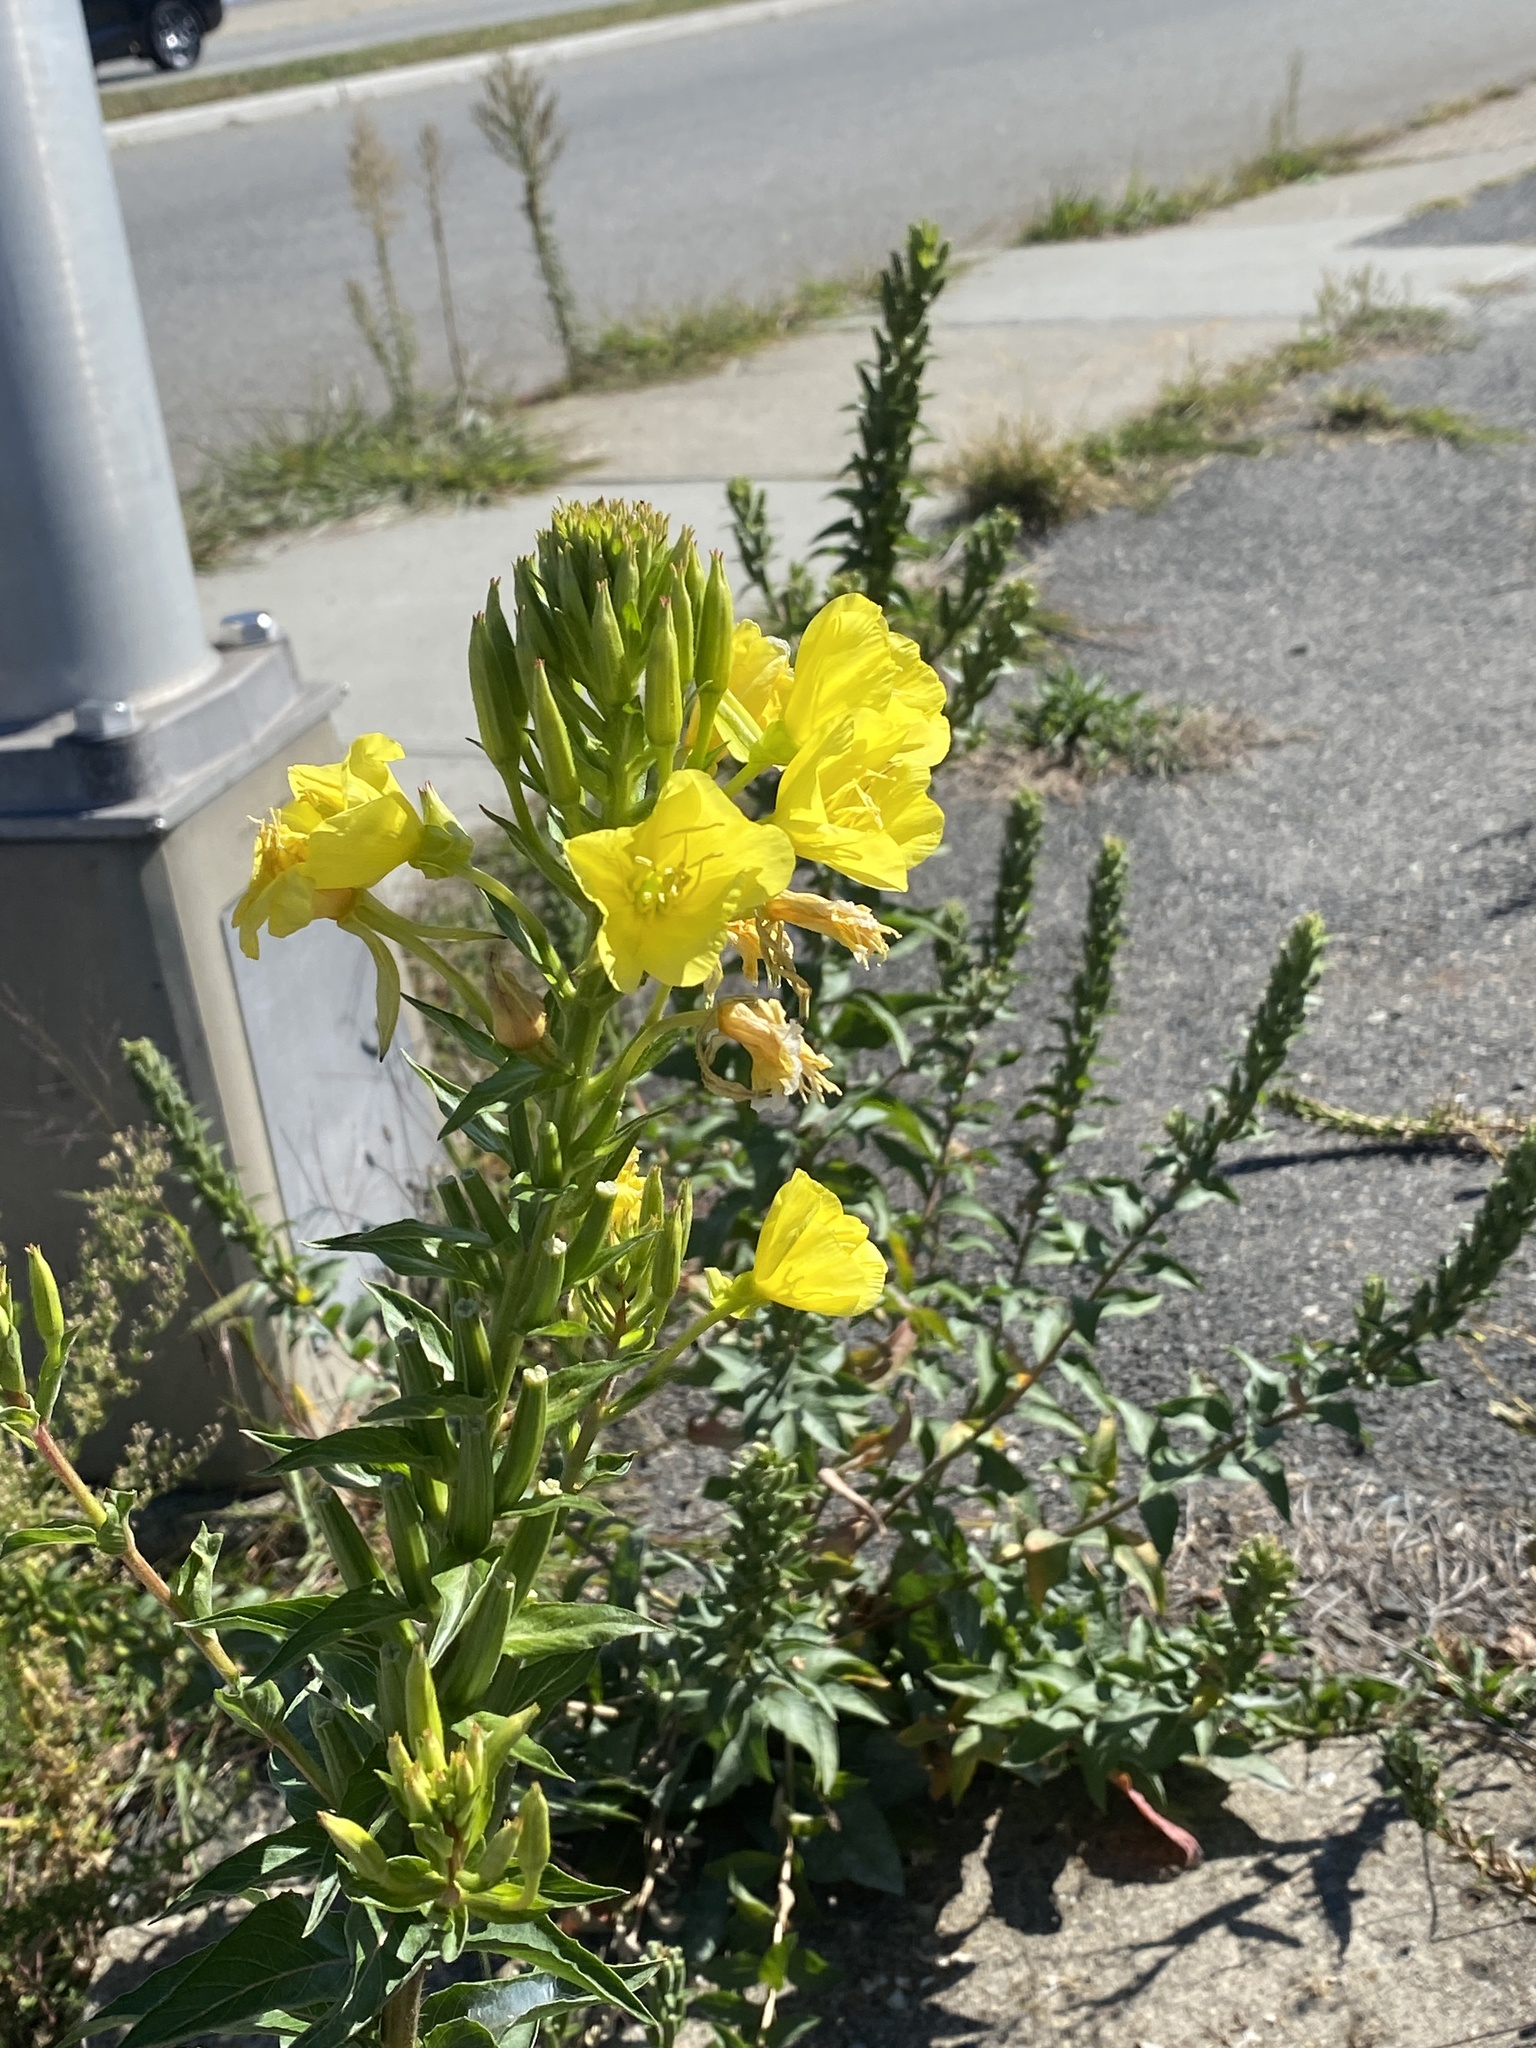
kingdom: Plantae
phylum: Tracheophyta
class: Magnoliopsida
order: Myrtales
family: Onagraceae
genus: Oenothera
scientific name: Oenothera biennis
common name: Common evening-primrose
